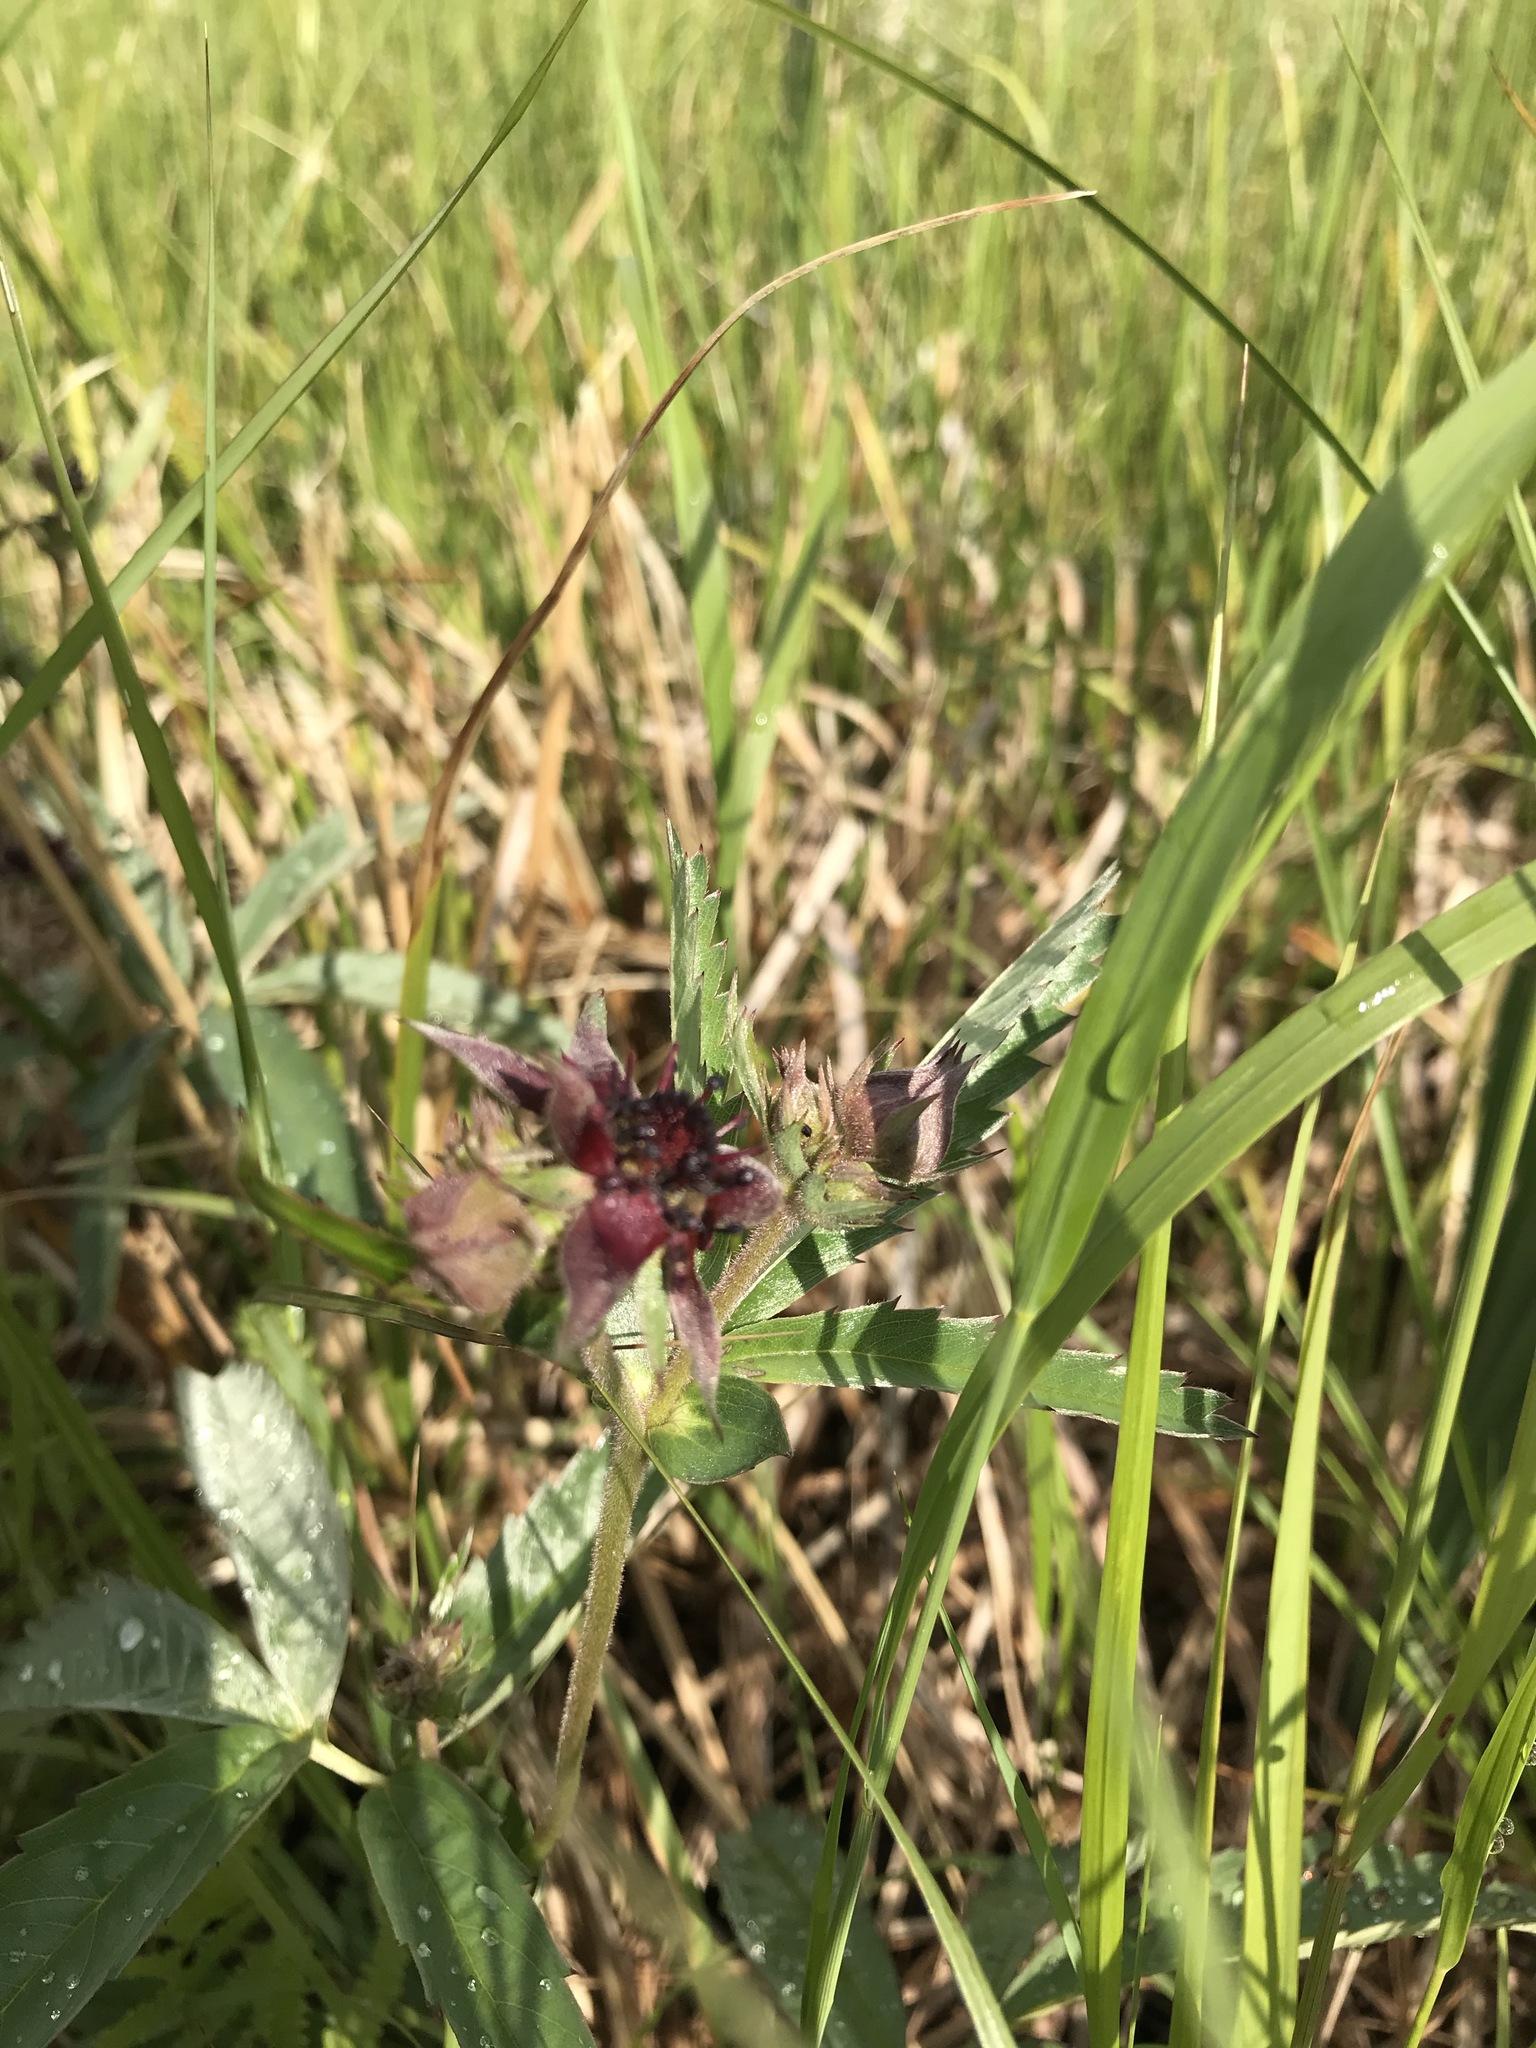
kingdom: Plantae
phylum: Tracheophyta
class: Magnoliopsida
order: Rosales
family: Rosaceae
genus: Comarum
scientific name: Comarum palustre
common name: Marsh cinquefoil
